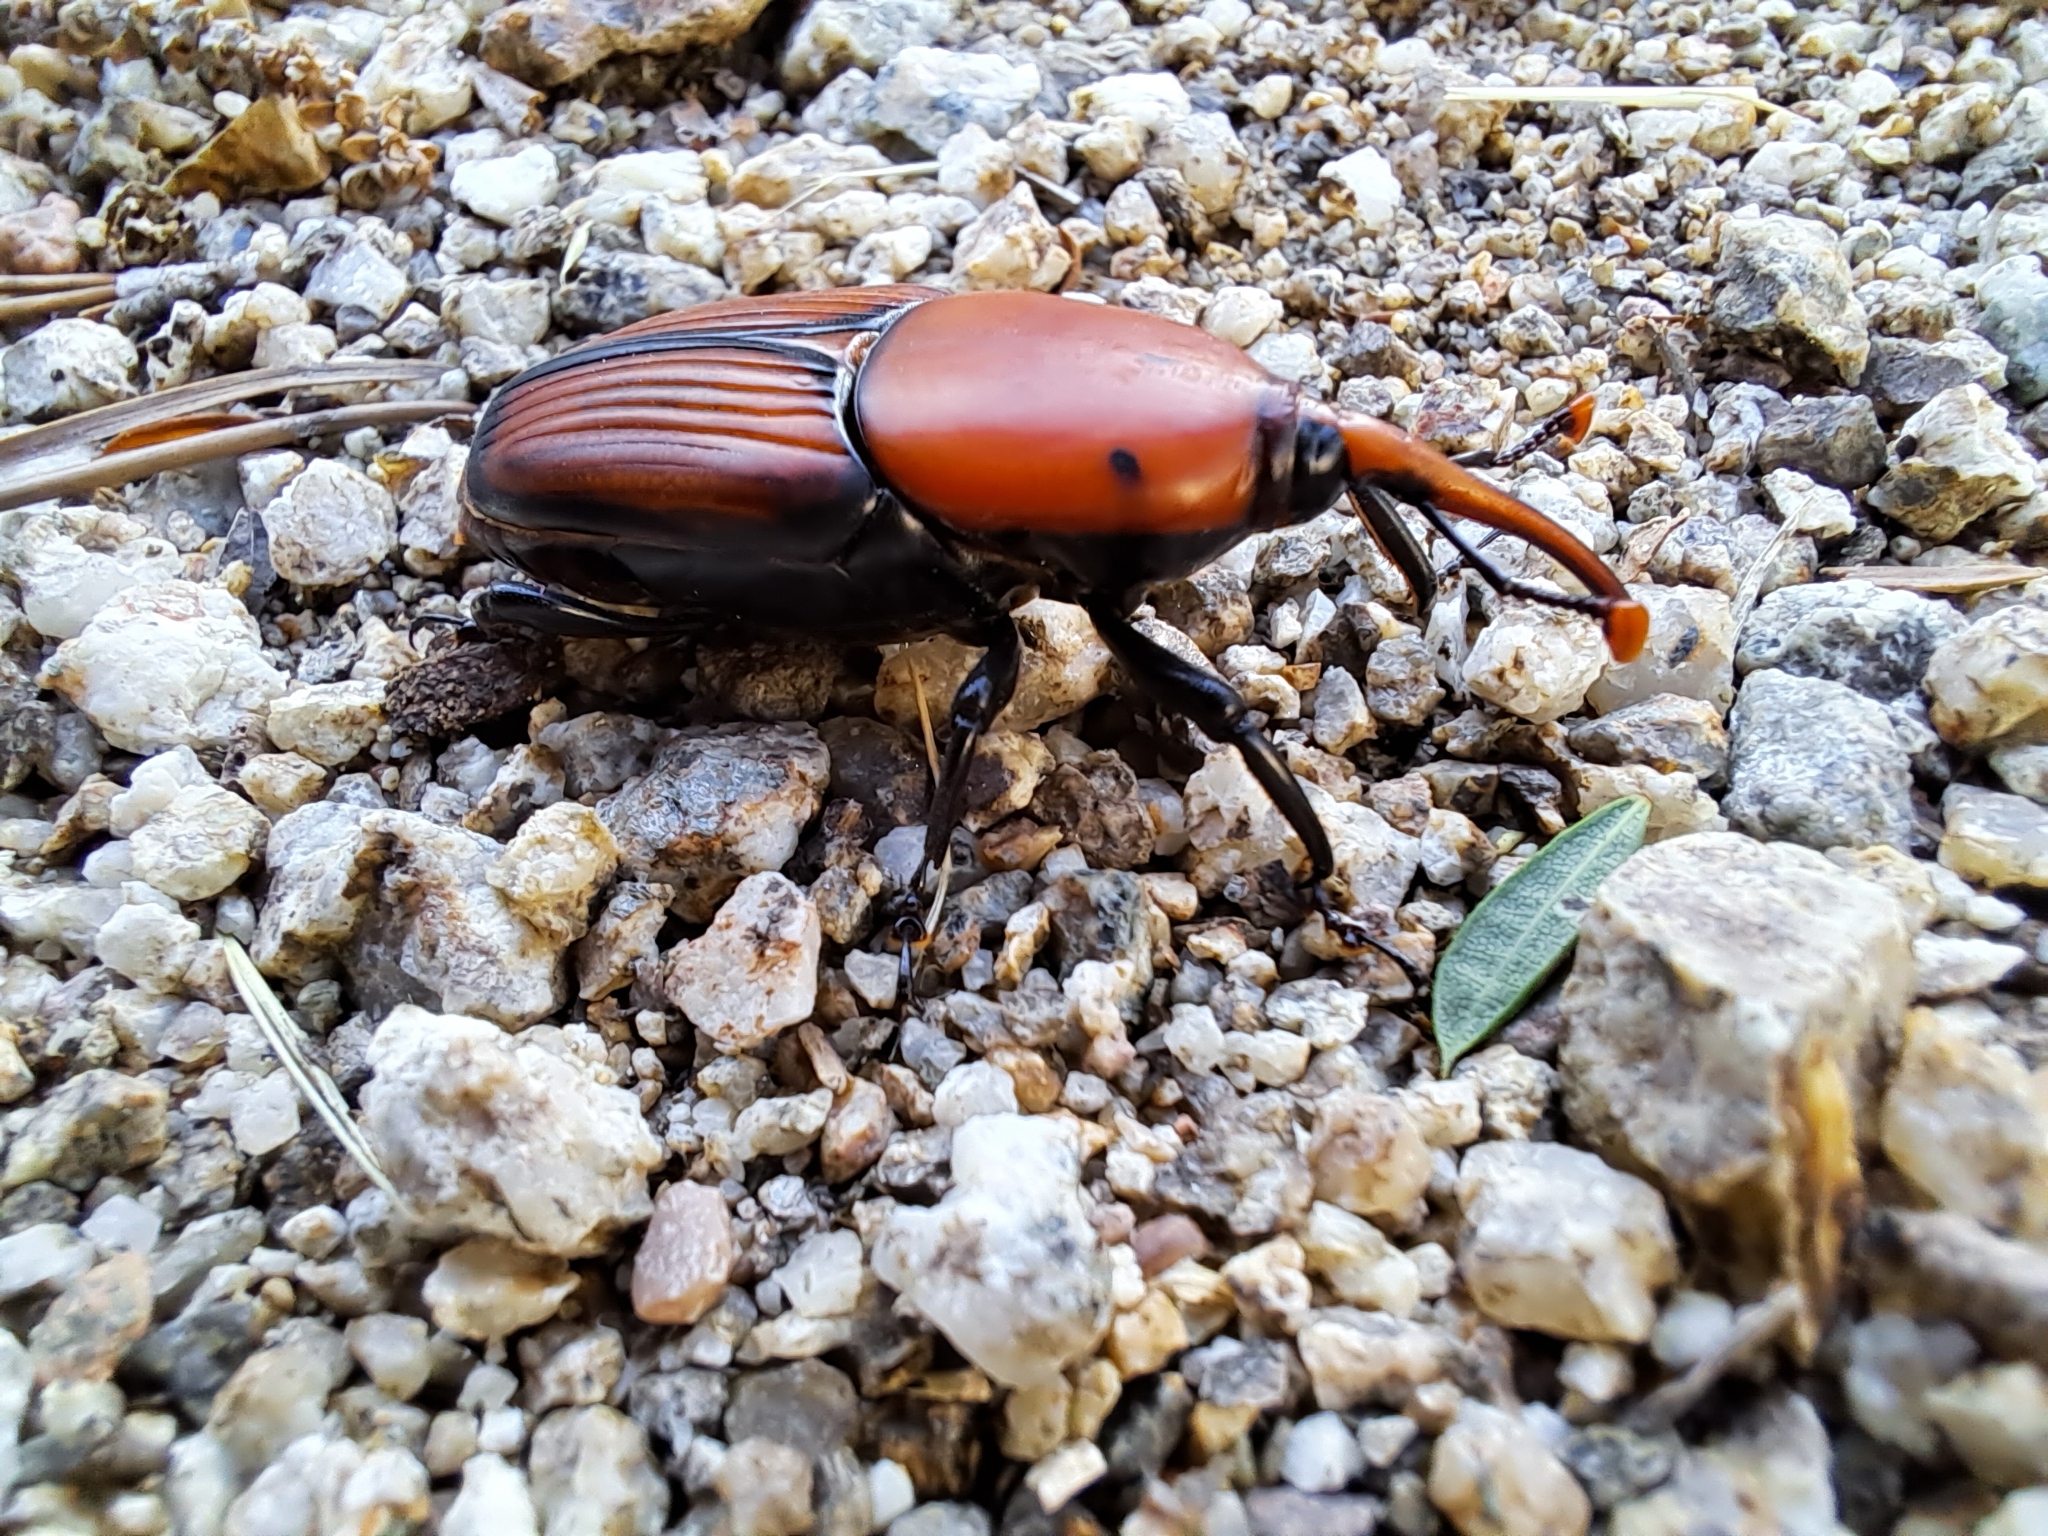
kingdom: Animalia
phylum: Arthropoda
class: Insecta
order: Coleoptera
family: Dryophthoridae
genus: Rhynchophorus
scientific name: Rhynchophorus ferrugineus
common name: Red palm weevil
